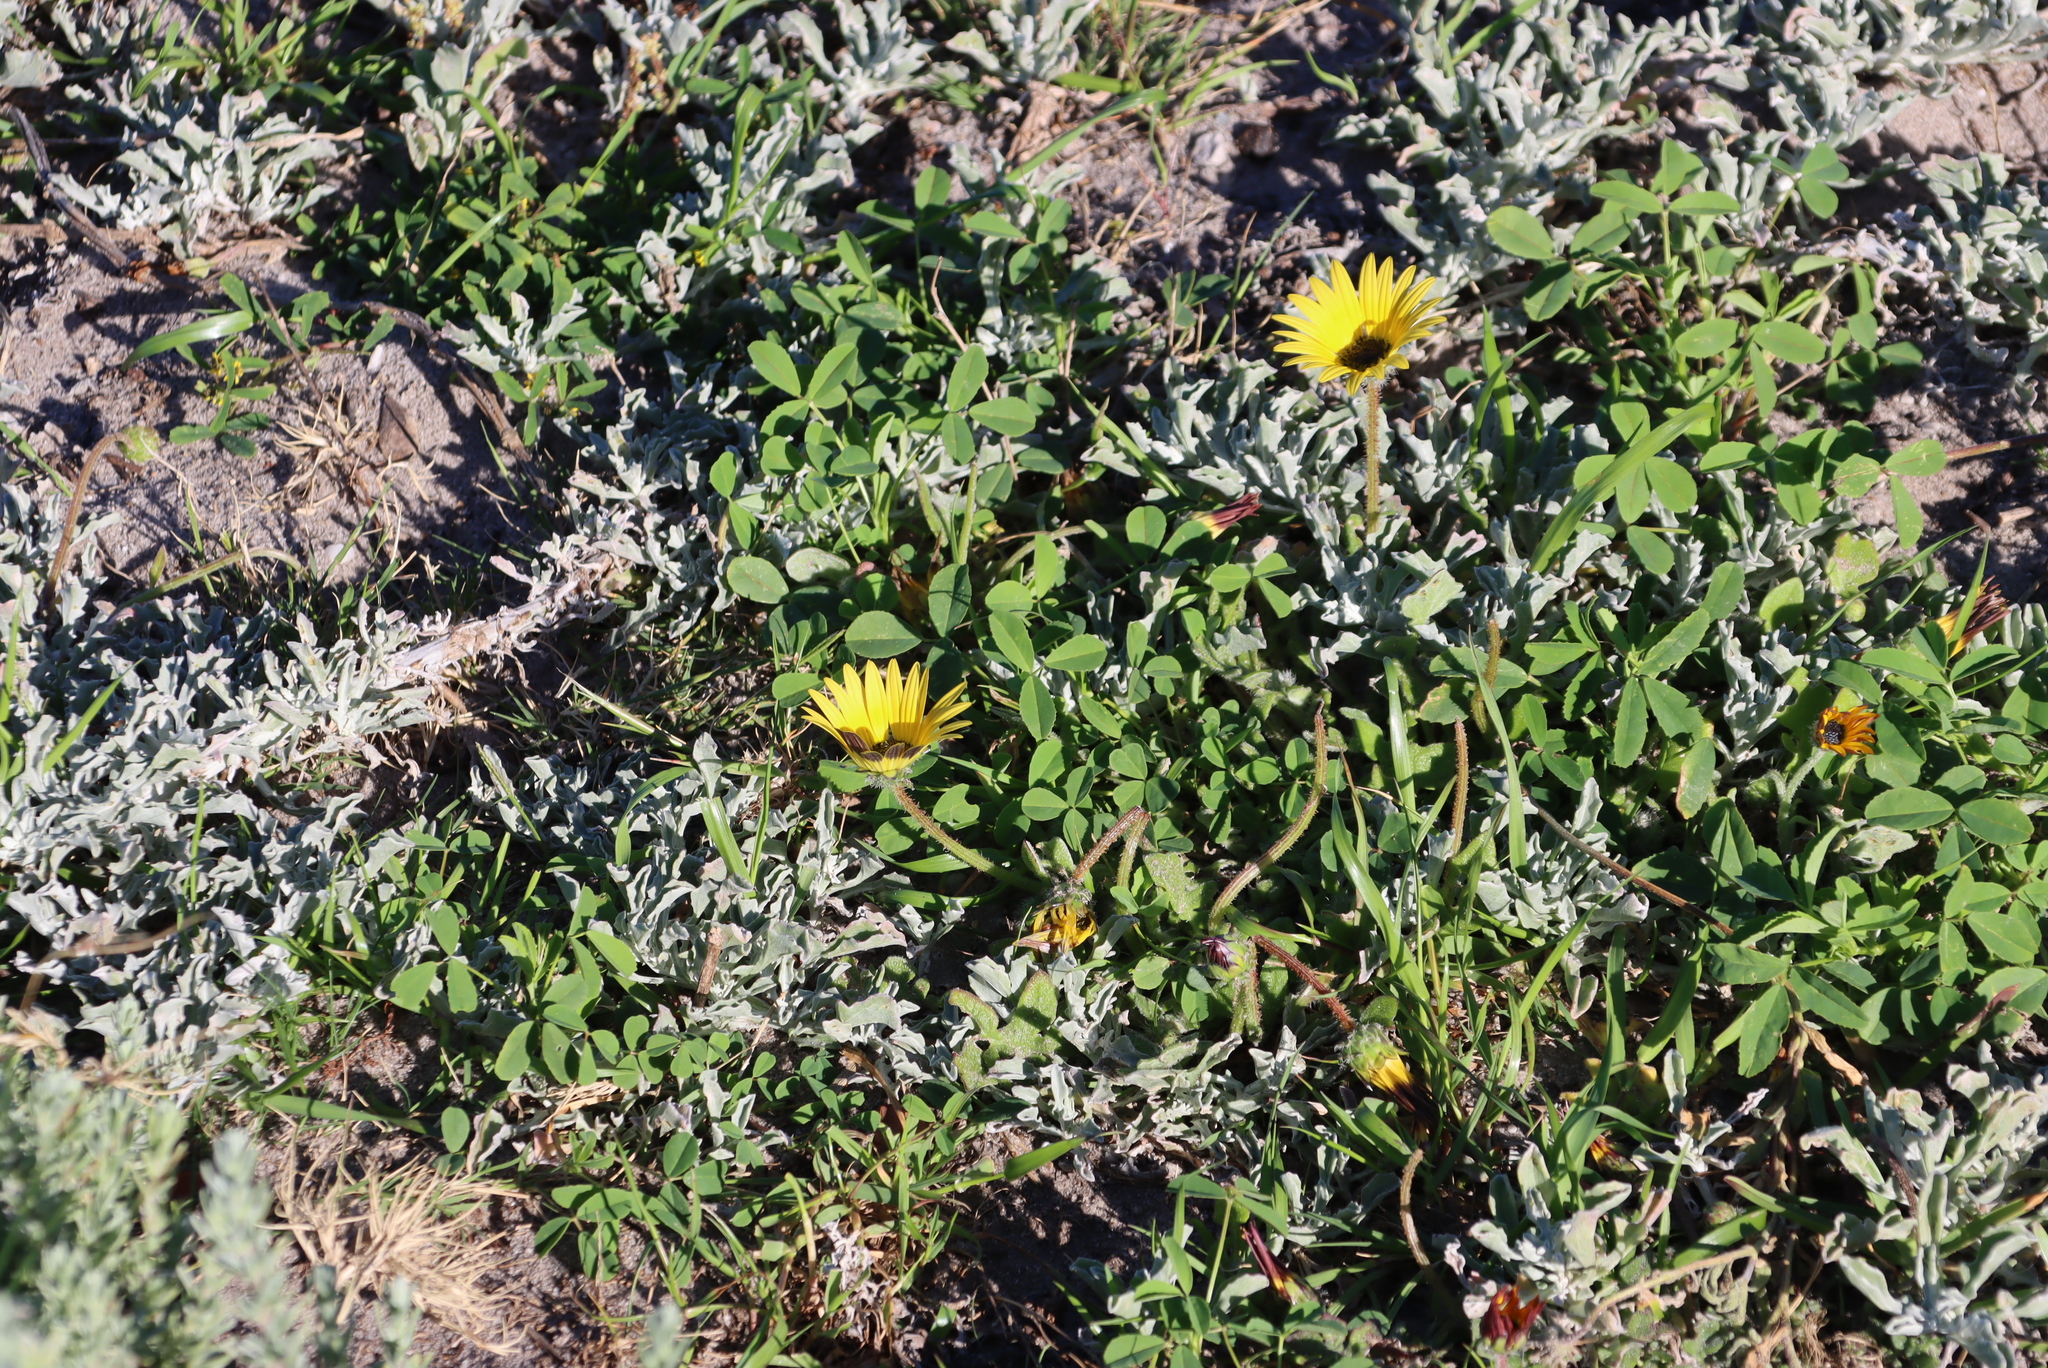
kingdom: Plantae
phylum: Tracheophyta
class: Magnoliopsida
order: Asterales
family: Asteraceae
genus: Arctotheca
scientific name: Arctotheca calendula
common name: Capeweed
